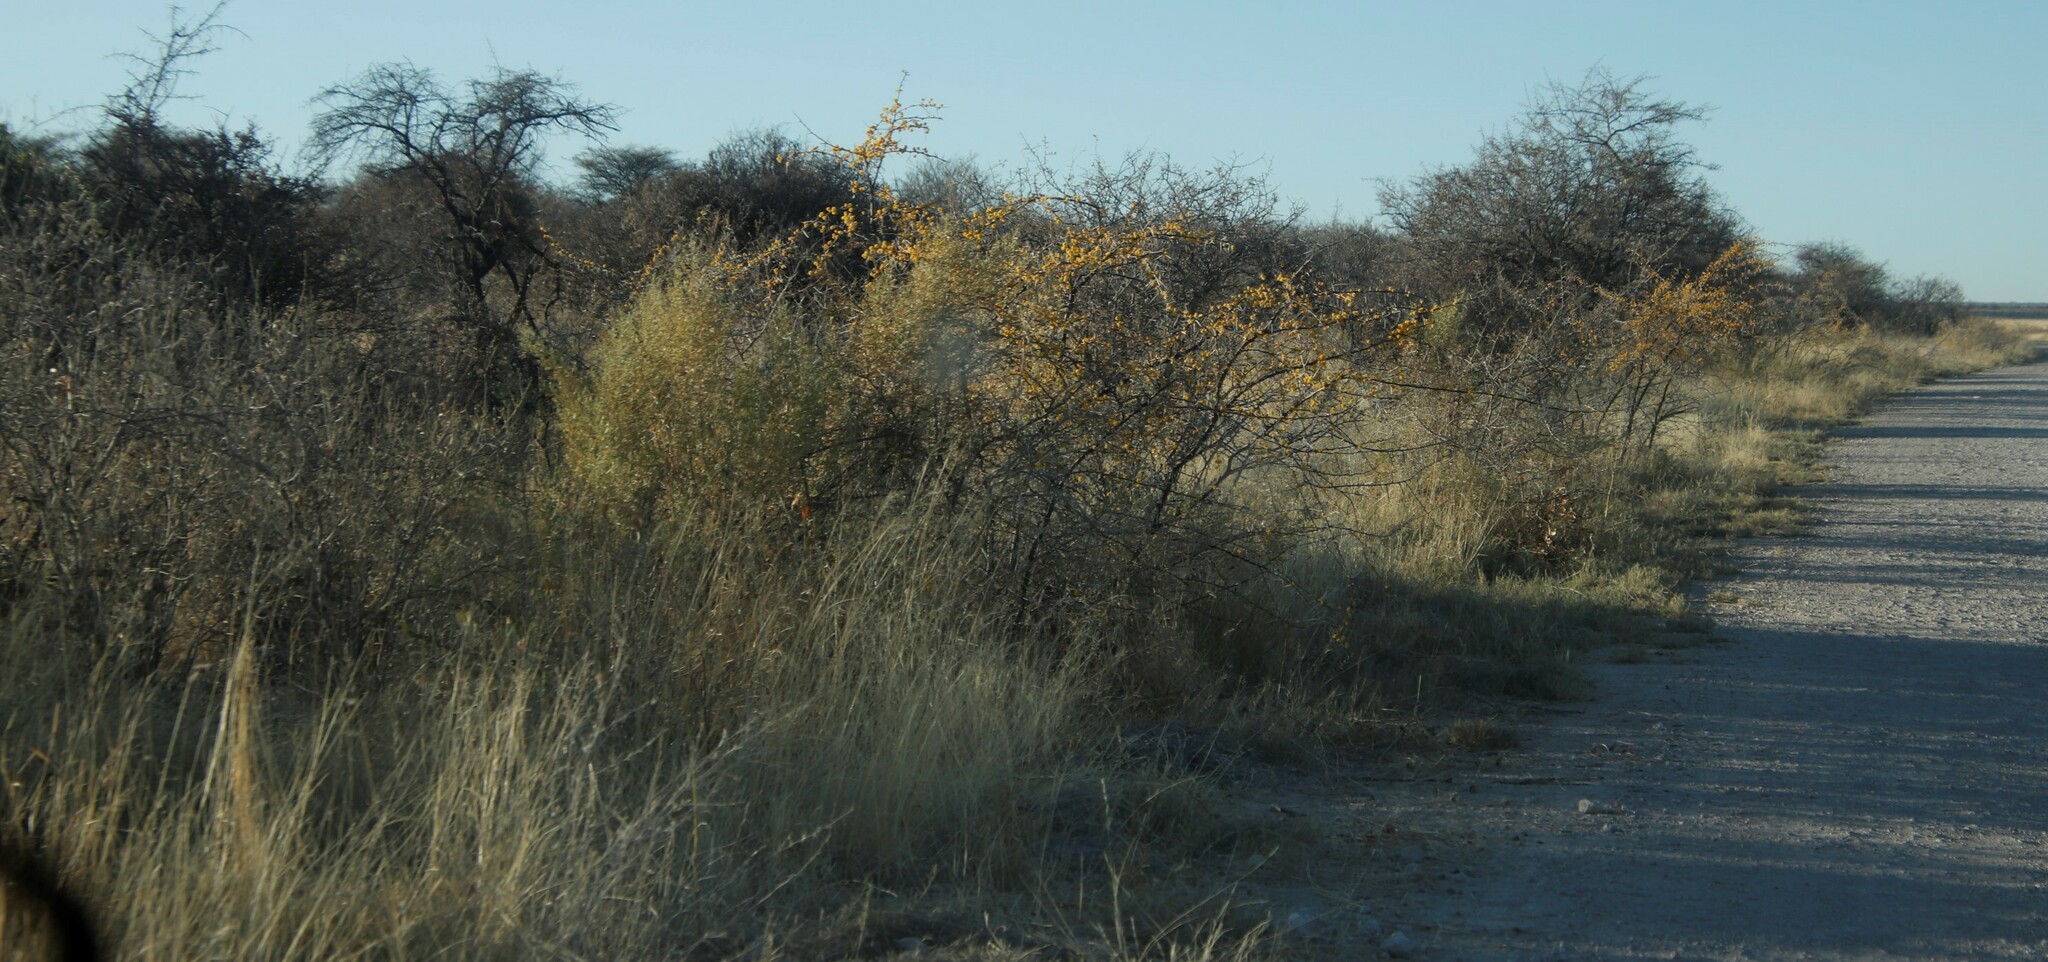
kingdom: Plantae
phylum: Tracheophyta
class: Magnoliopsida
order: Fabales
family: Fabaceae
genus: Vachellia
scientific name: Vachellia nebrownii
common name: Water acacia
